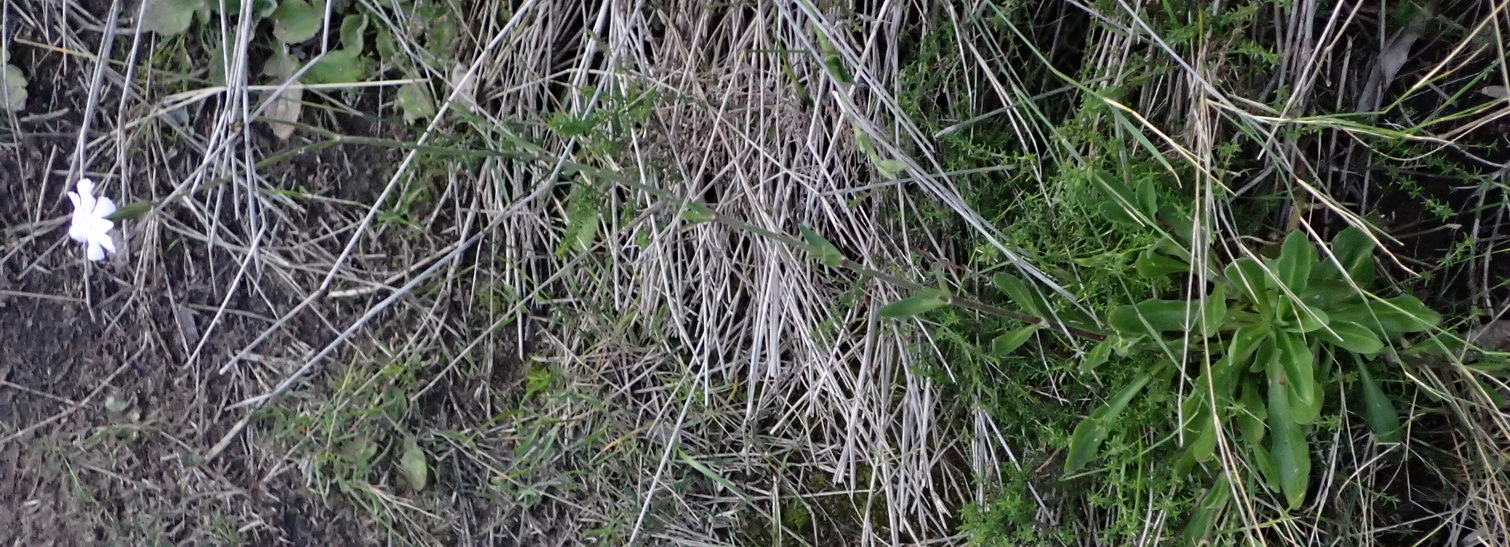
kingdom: Plantae
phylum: Tracheophyta
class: Magnoliopsida
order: Caryophyllales
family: Caryophyllaceae
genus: Silene
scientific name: Silene undulata
